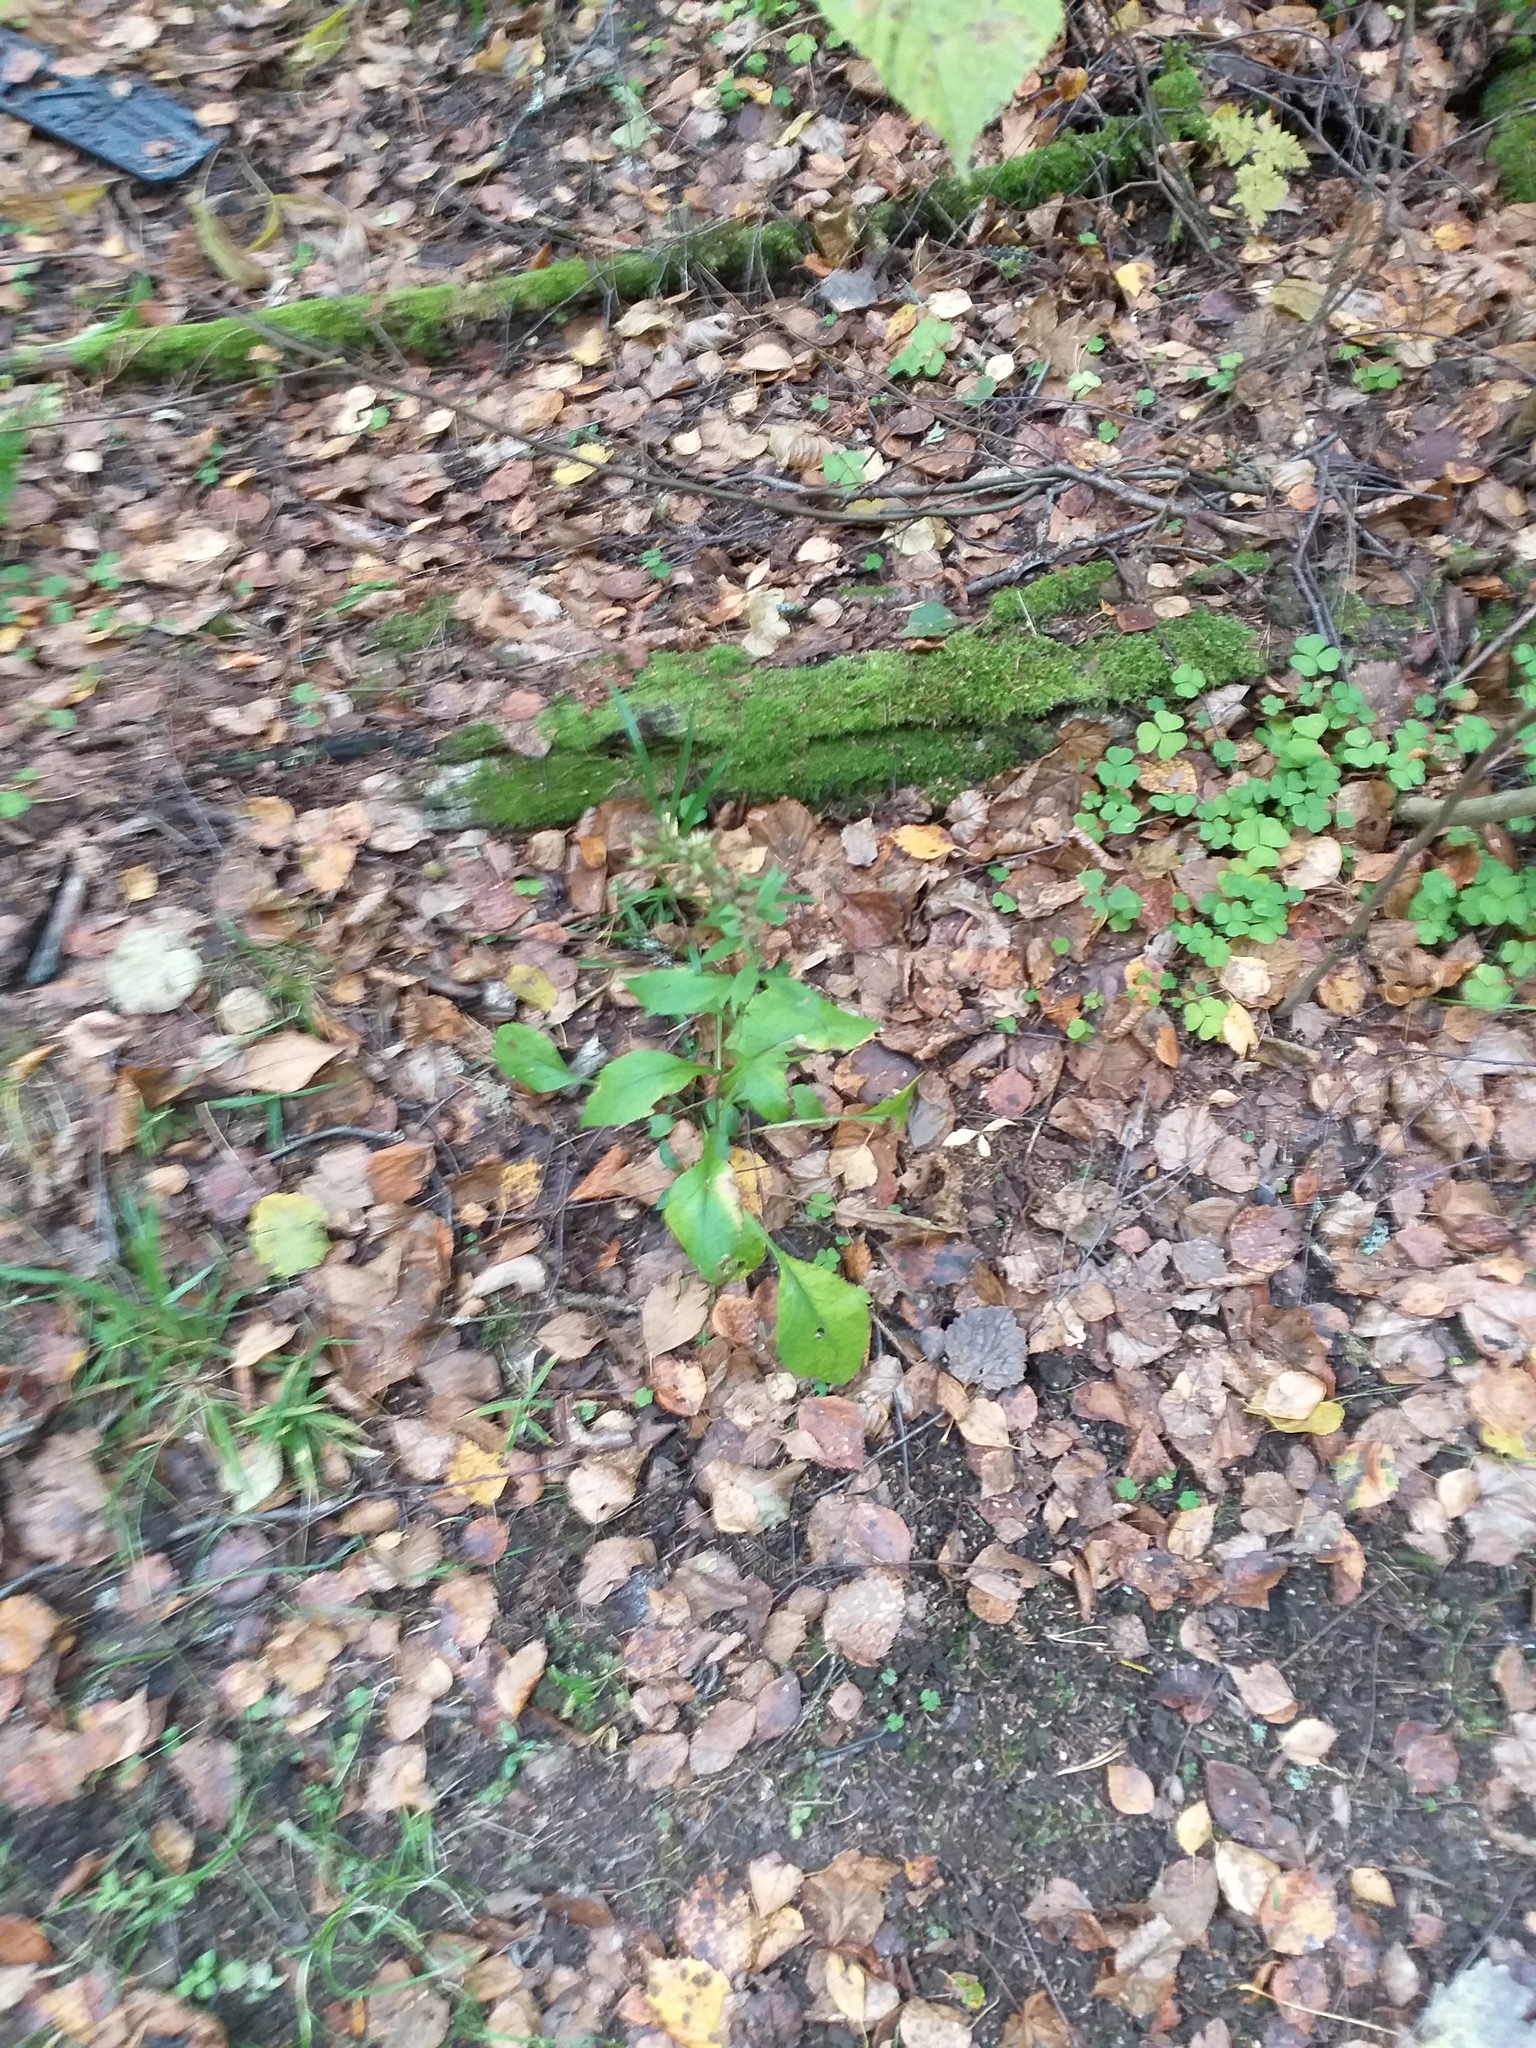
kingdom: Plantae
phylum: Tracheophyta
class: Magnoliopsida
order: Asterales
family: Asteraceae
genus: Solidago
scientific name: Solidago virgaurea
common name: Goldenrod
